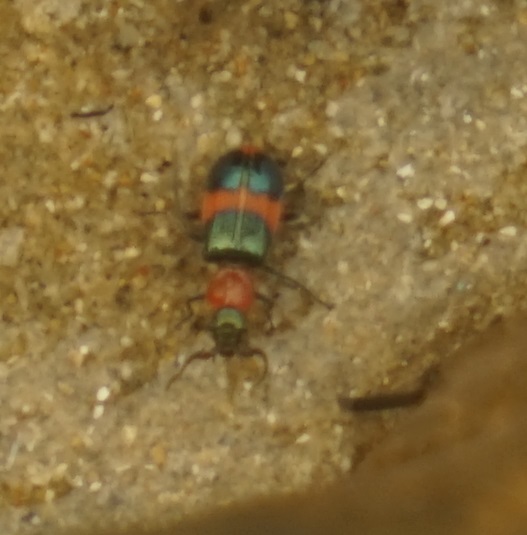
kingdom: Animalia
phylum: Arthropoda
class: Insecta
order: Coleoptera
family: Melyridae
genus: Dicranolaius
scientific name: Dicranolaius bellulus
